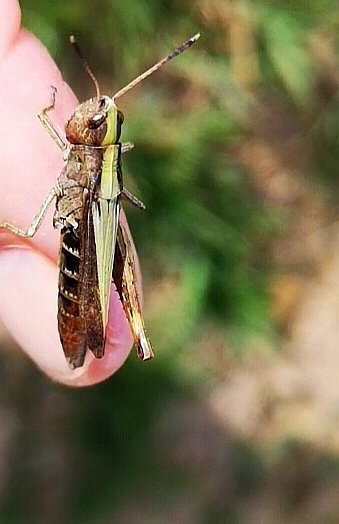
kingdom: Animalia
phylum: Arthropoda
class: Insecta
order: Orthoptera
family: Acrididae
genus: Gomphocerippus
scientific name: Gomphocerippus rufus
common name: Rufous grasshopper
